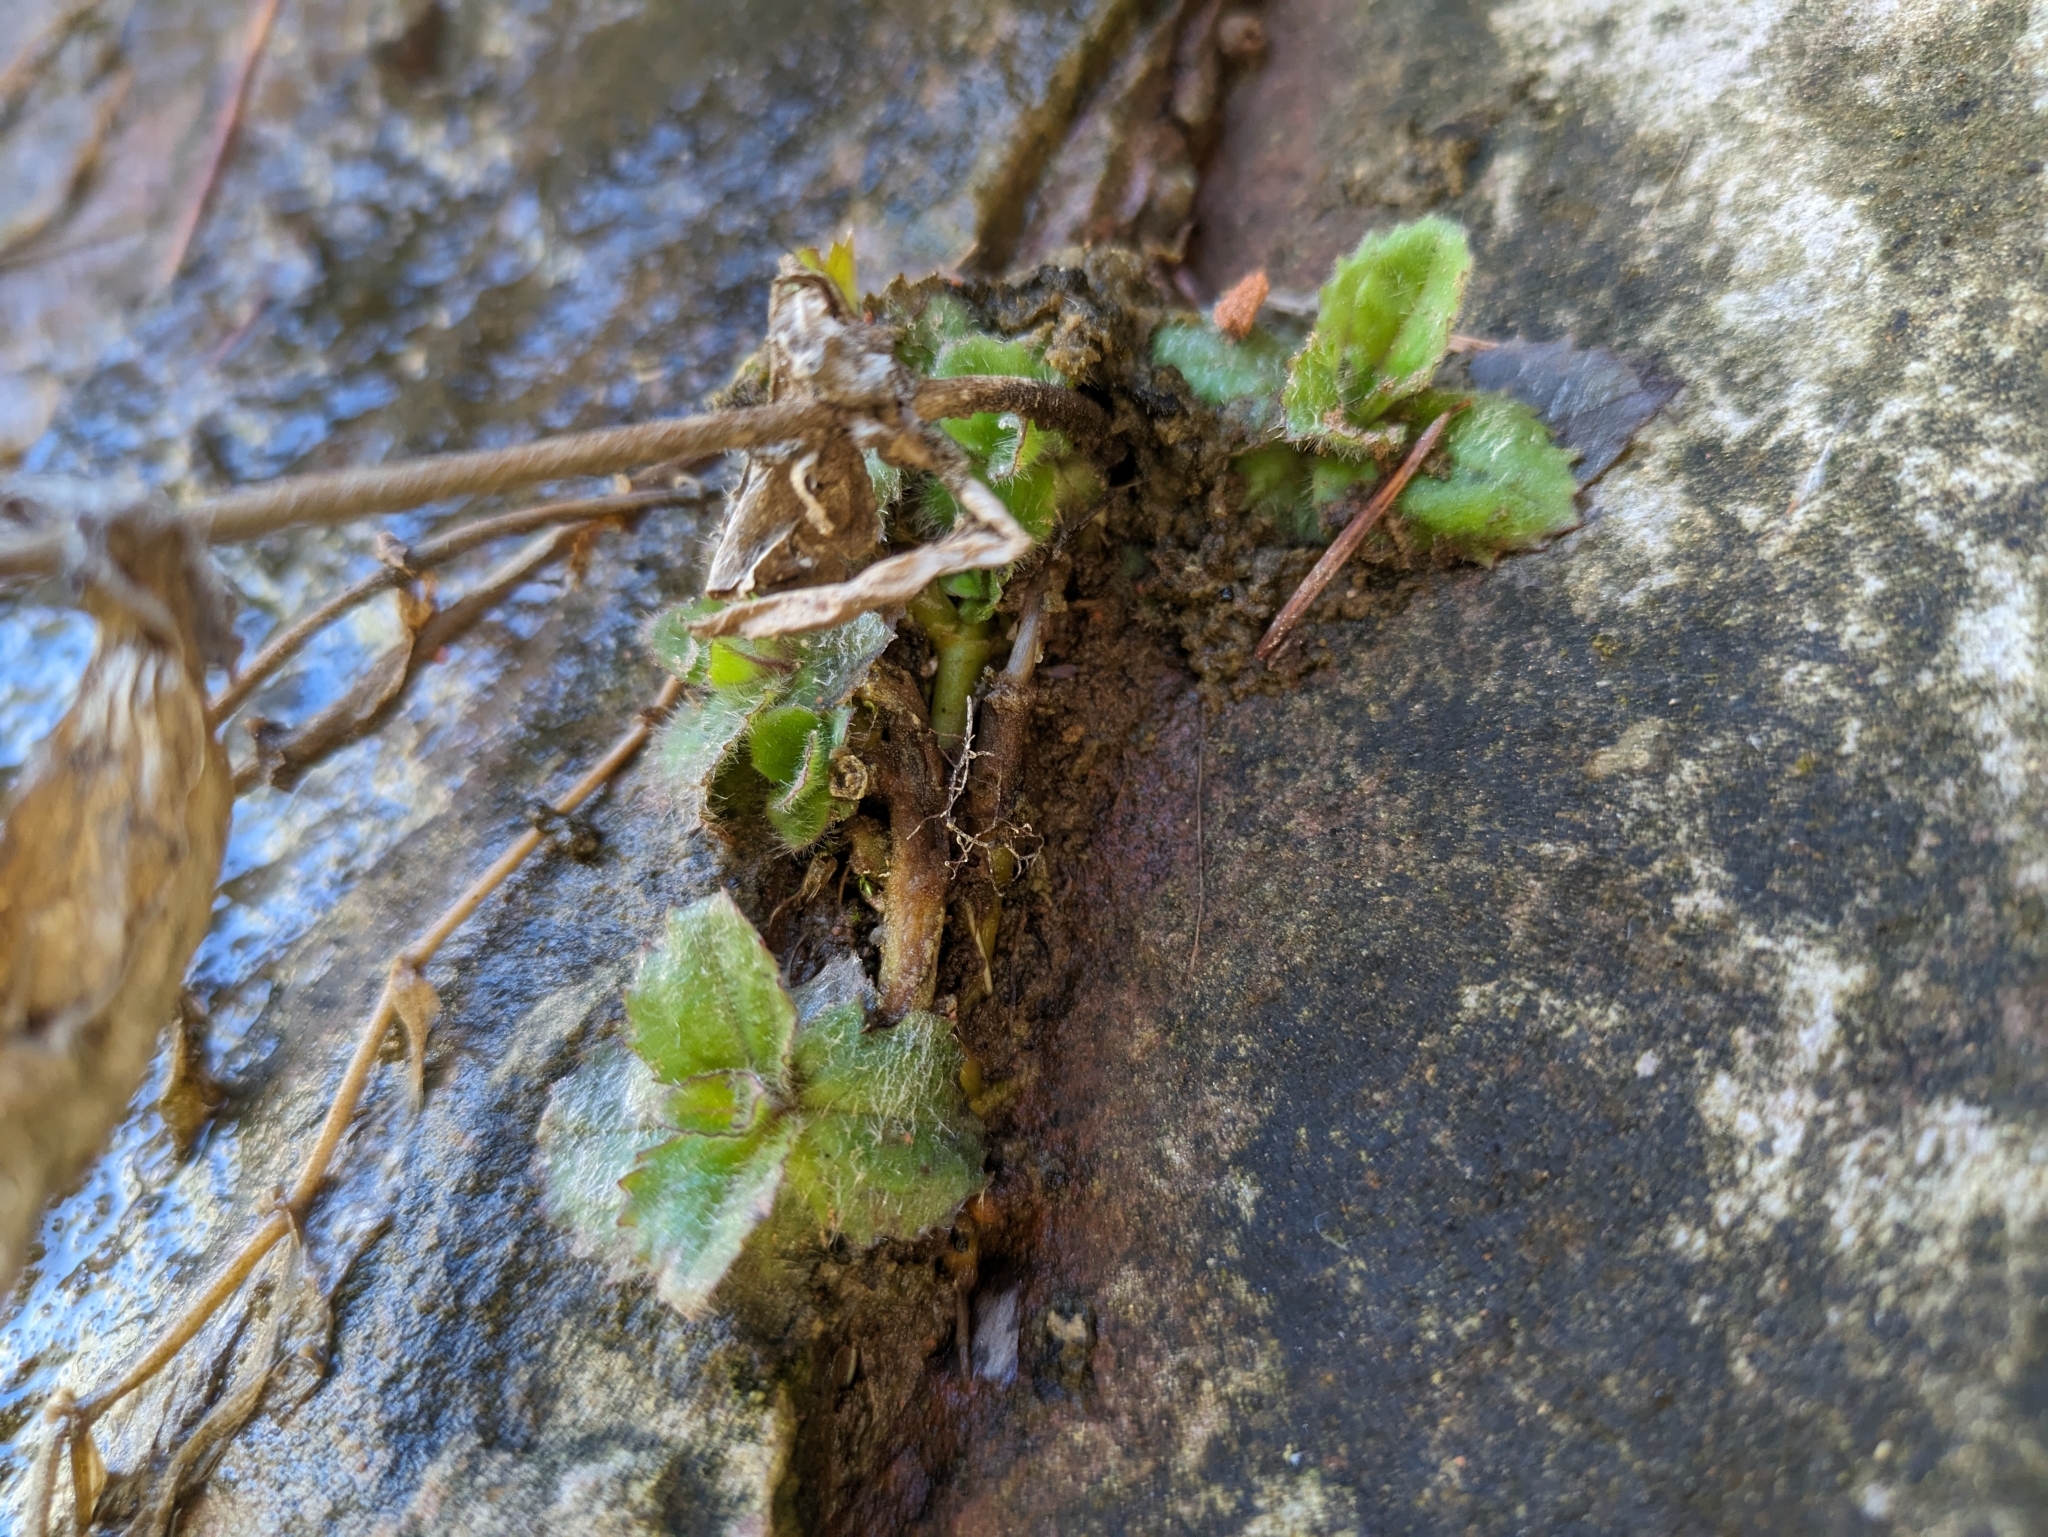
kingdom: Plantae
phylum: Tracheophyta
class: Magnoliopsida
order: Lamiales
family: Phrymaceae
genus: Erythranthe
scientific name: Erythranthe verbenacea
